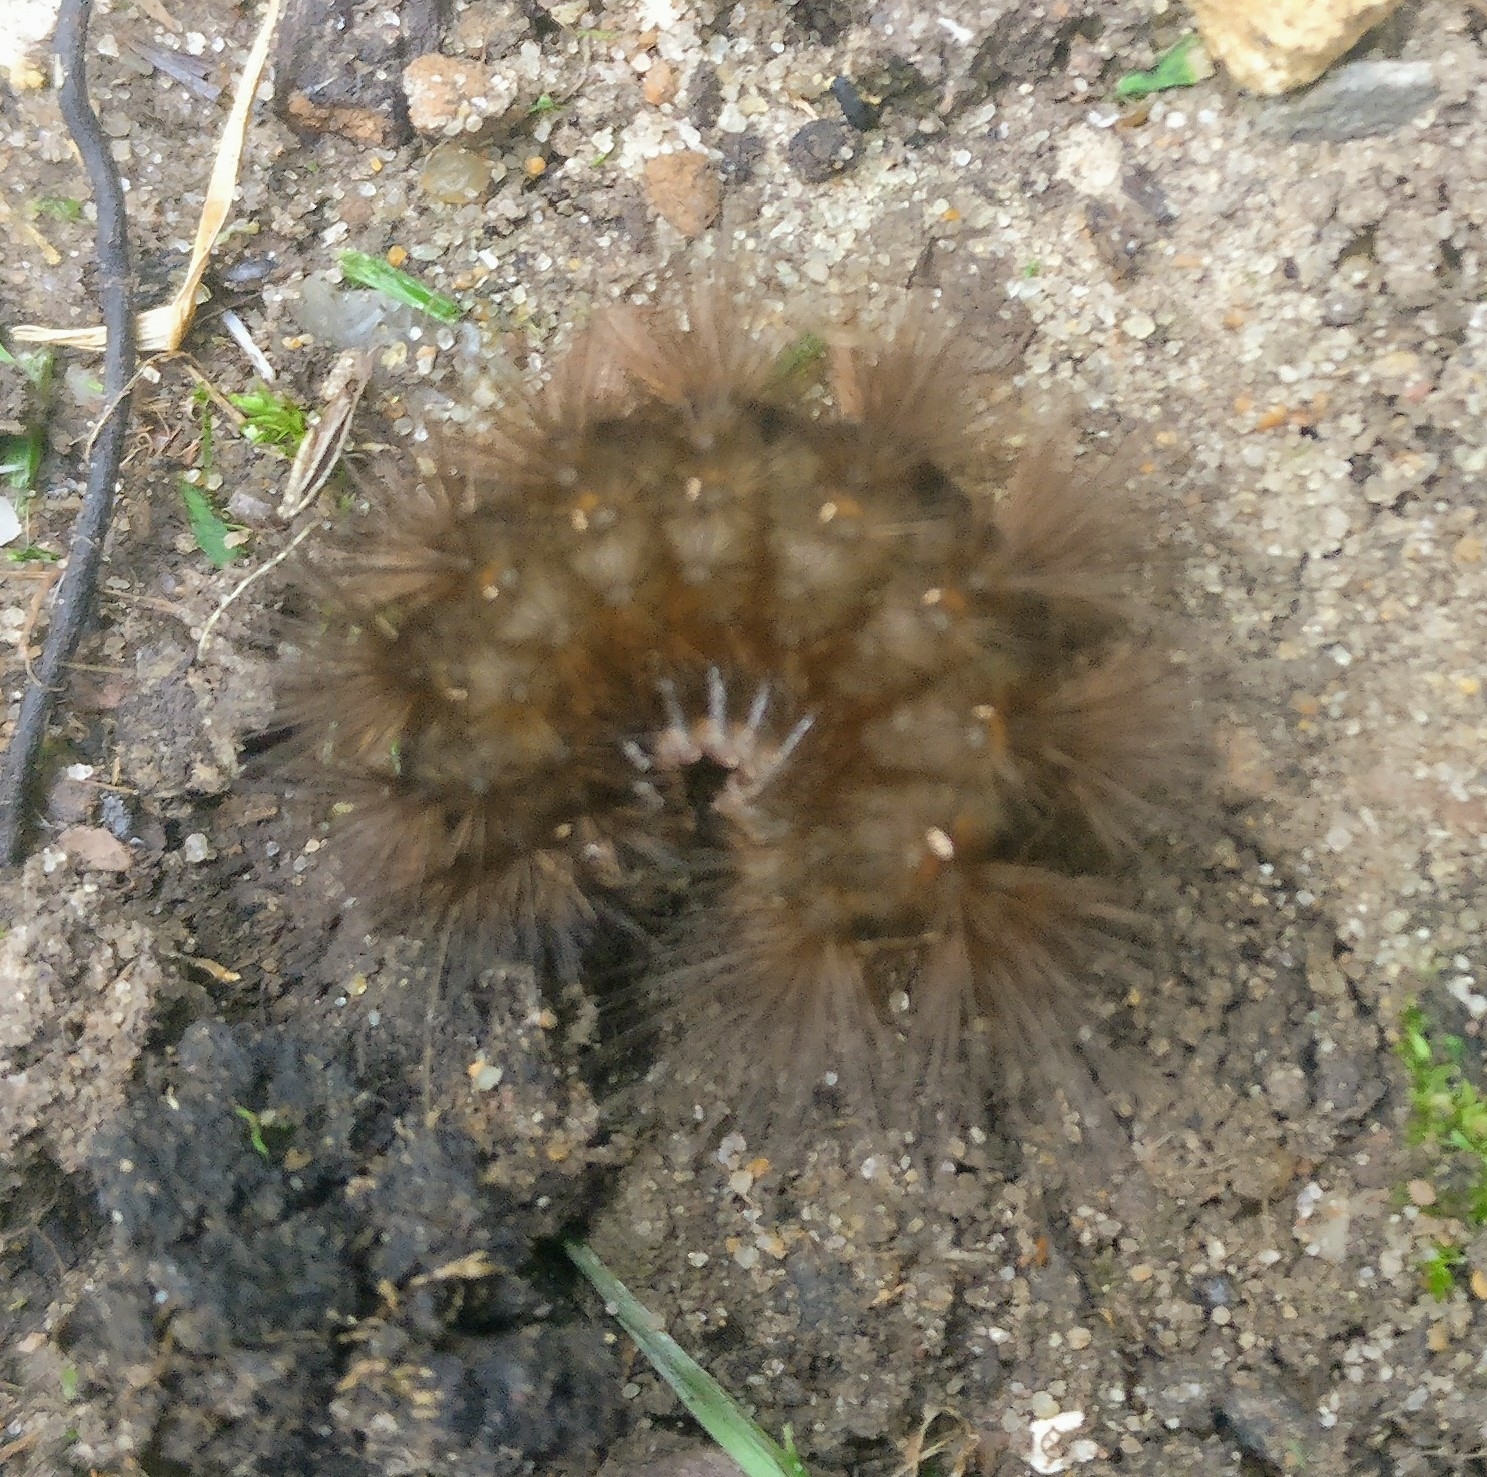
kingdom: Animalia
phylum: Arthropoda
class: Insecta
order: Lepidoptera
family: Erebidae
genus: Spilosoma
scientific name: Spilosoma lubricipeda
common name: White ermine
